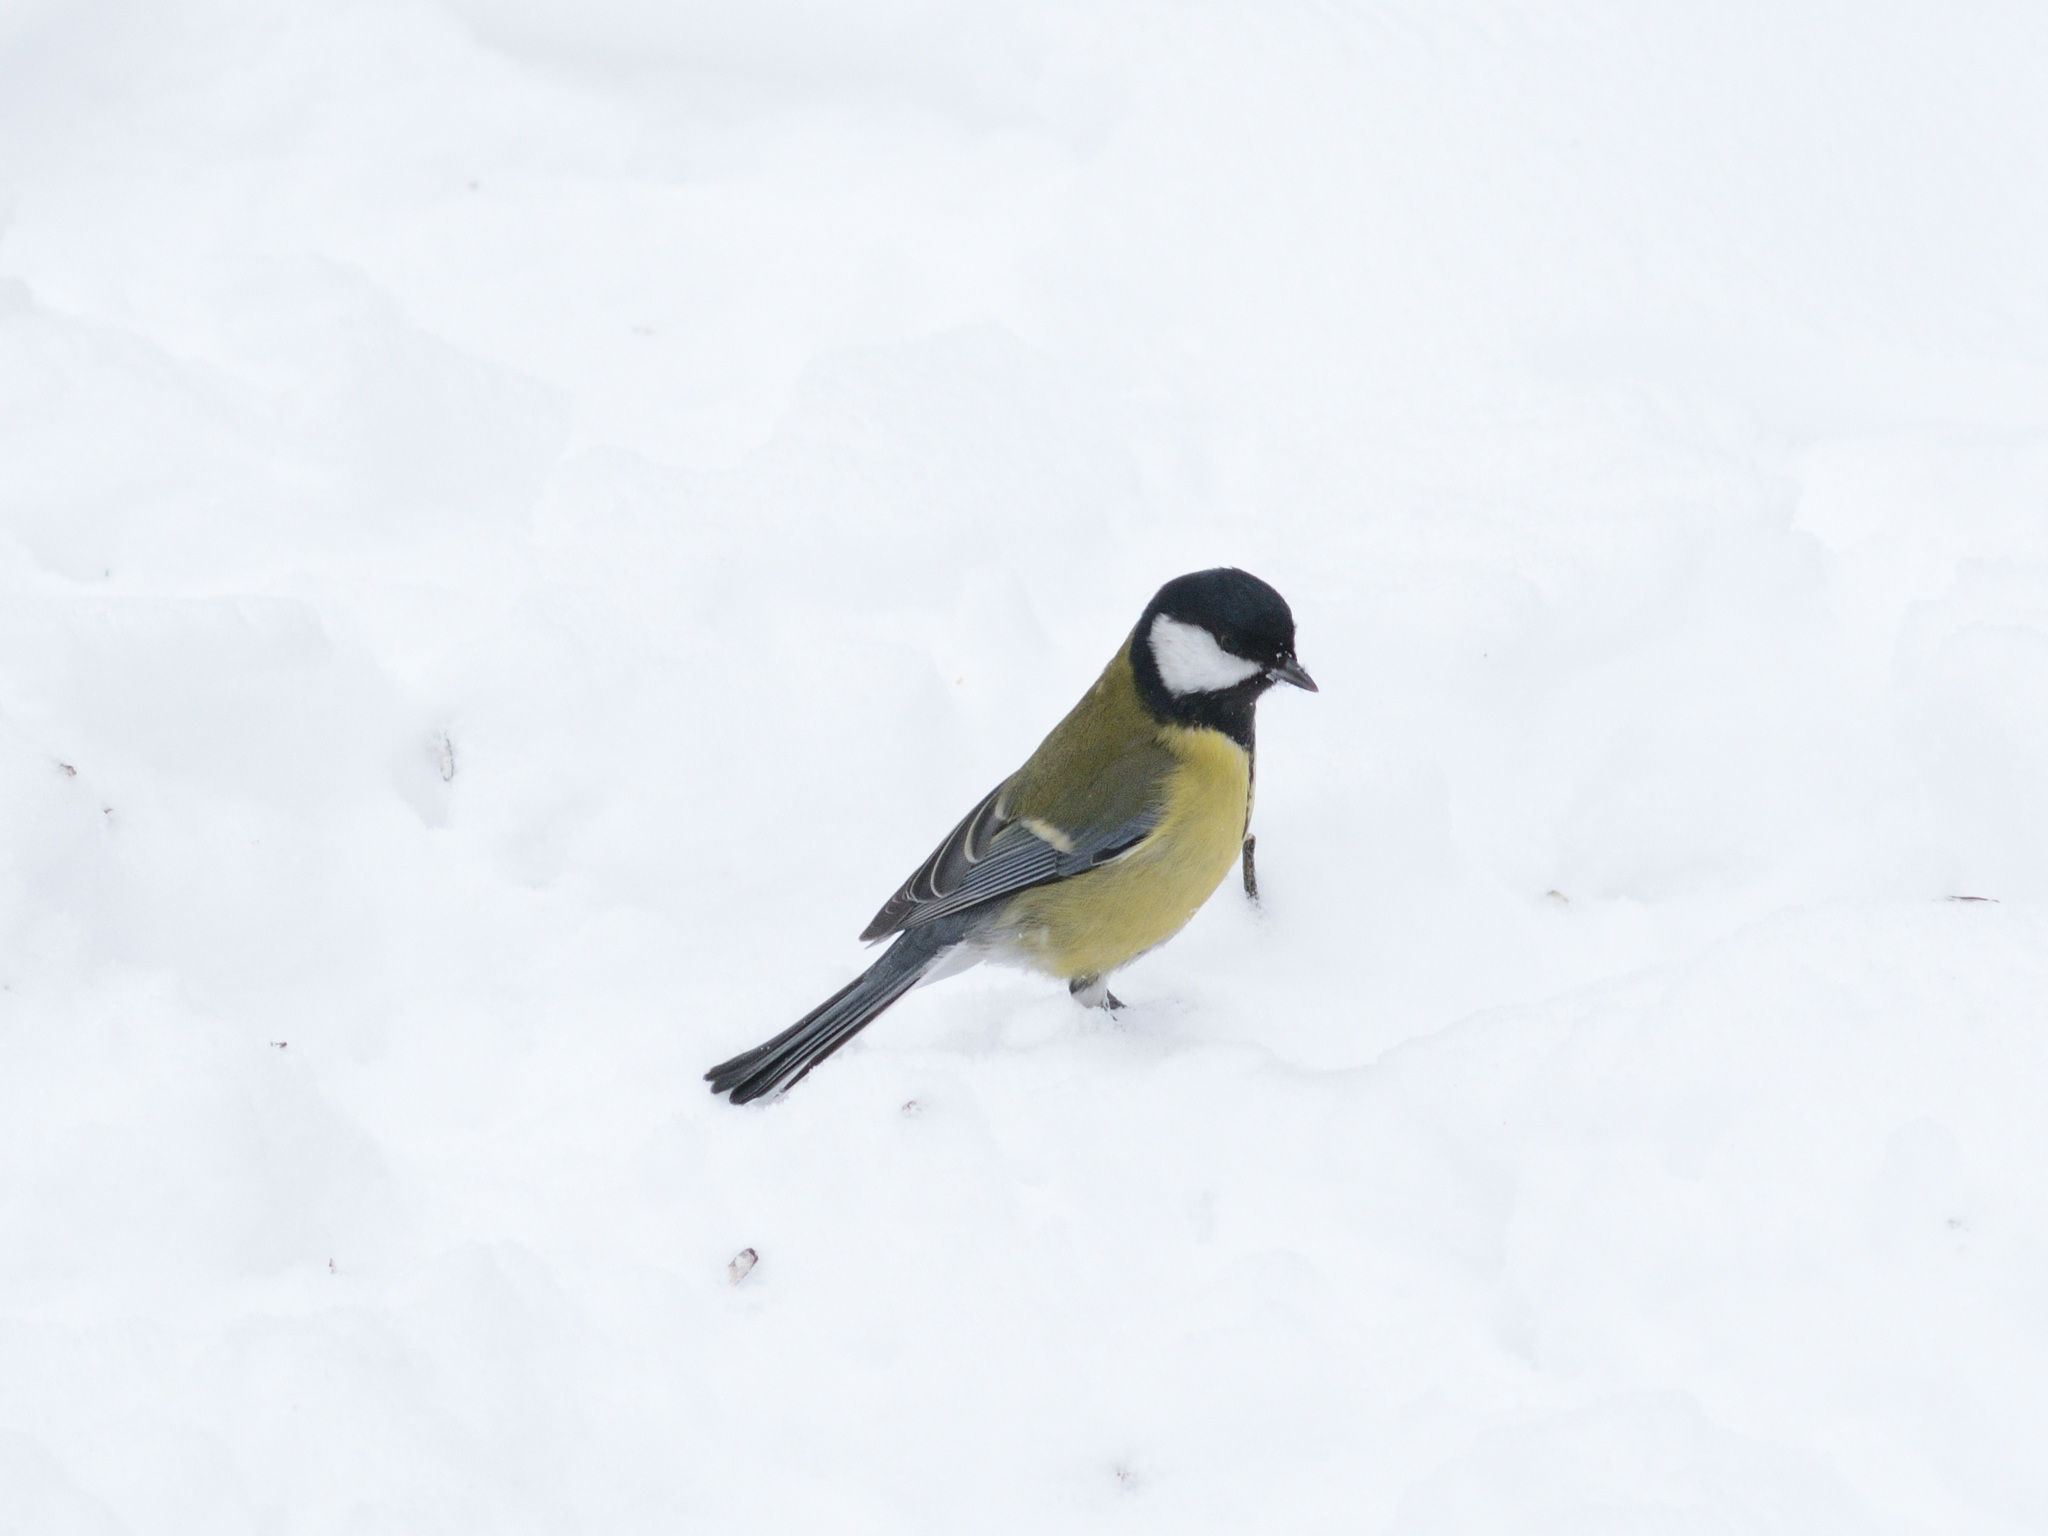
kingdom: Animalia
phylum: Chordata
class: Aves
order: Passeriformes
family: Paridae
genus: Parus
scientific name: Parus major
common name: Great tit
